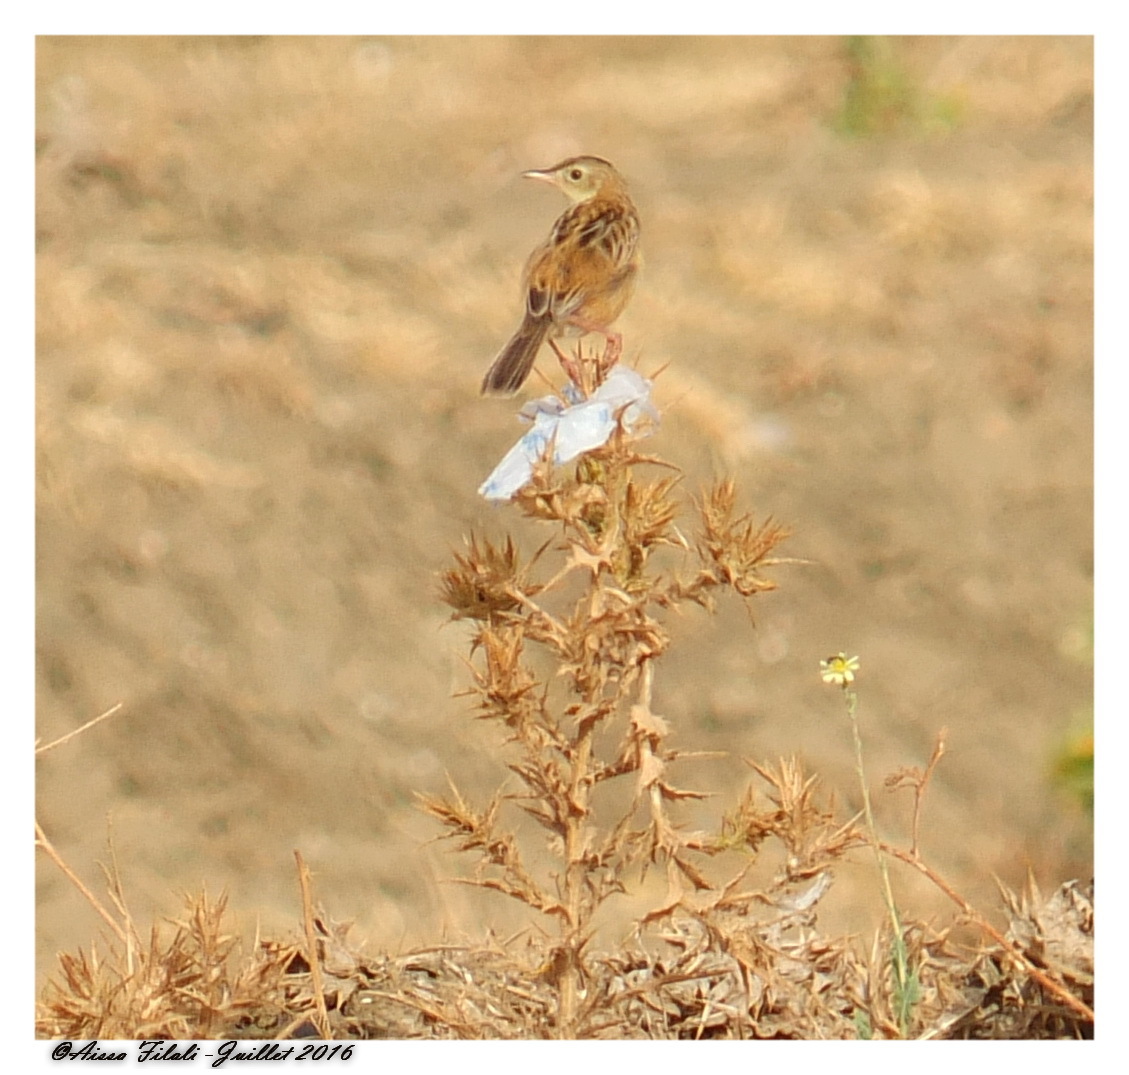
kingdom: Animalia
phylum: Chordata
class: Aves
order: Passeriformes
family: Cisticolidae
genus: Cisticola
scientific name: Cisticola juncidis
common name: Zitting cisticola
